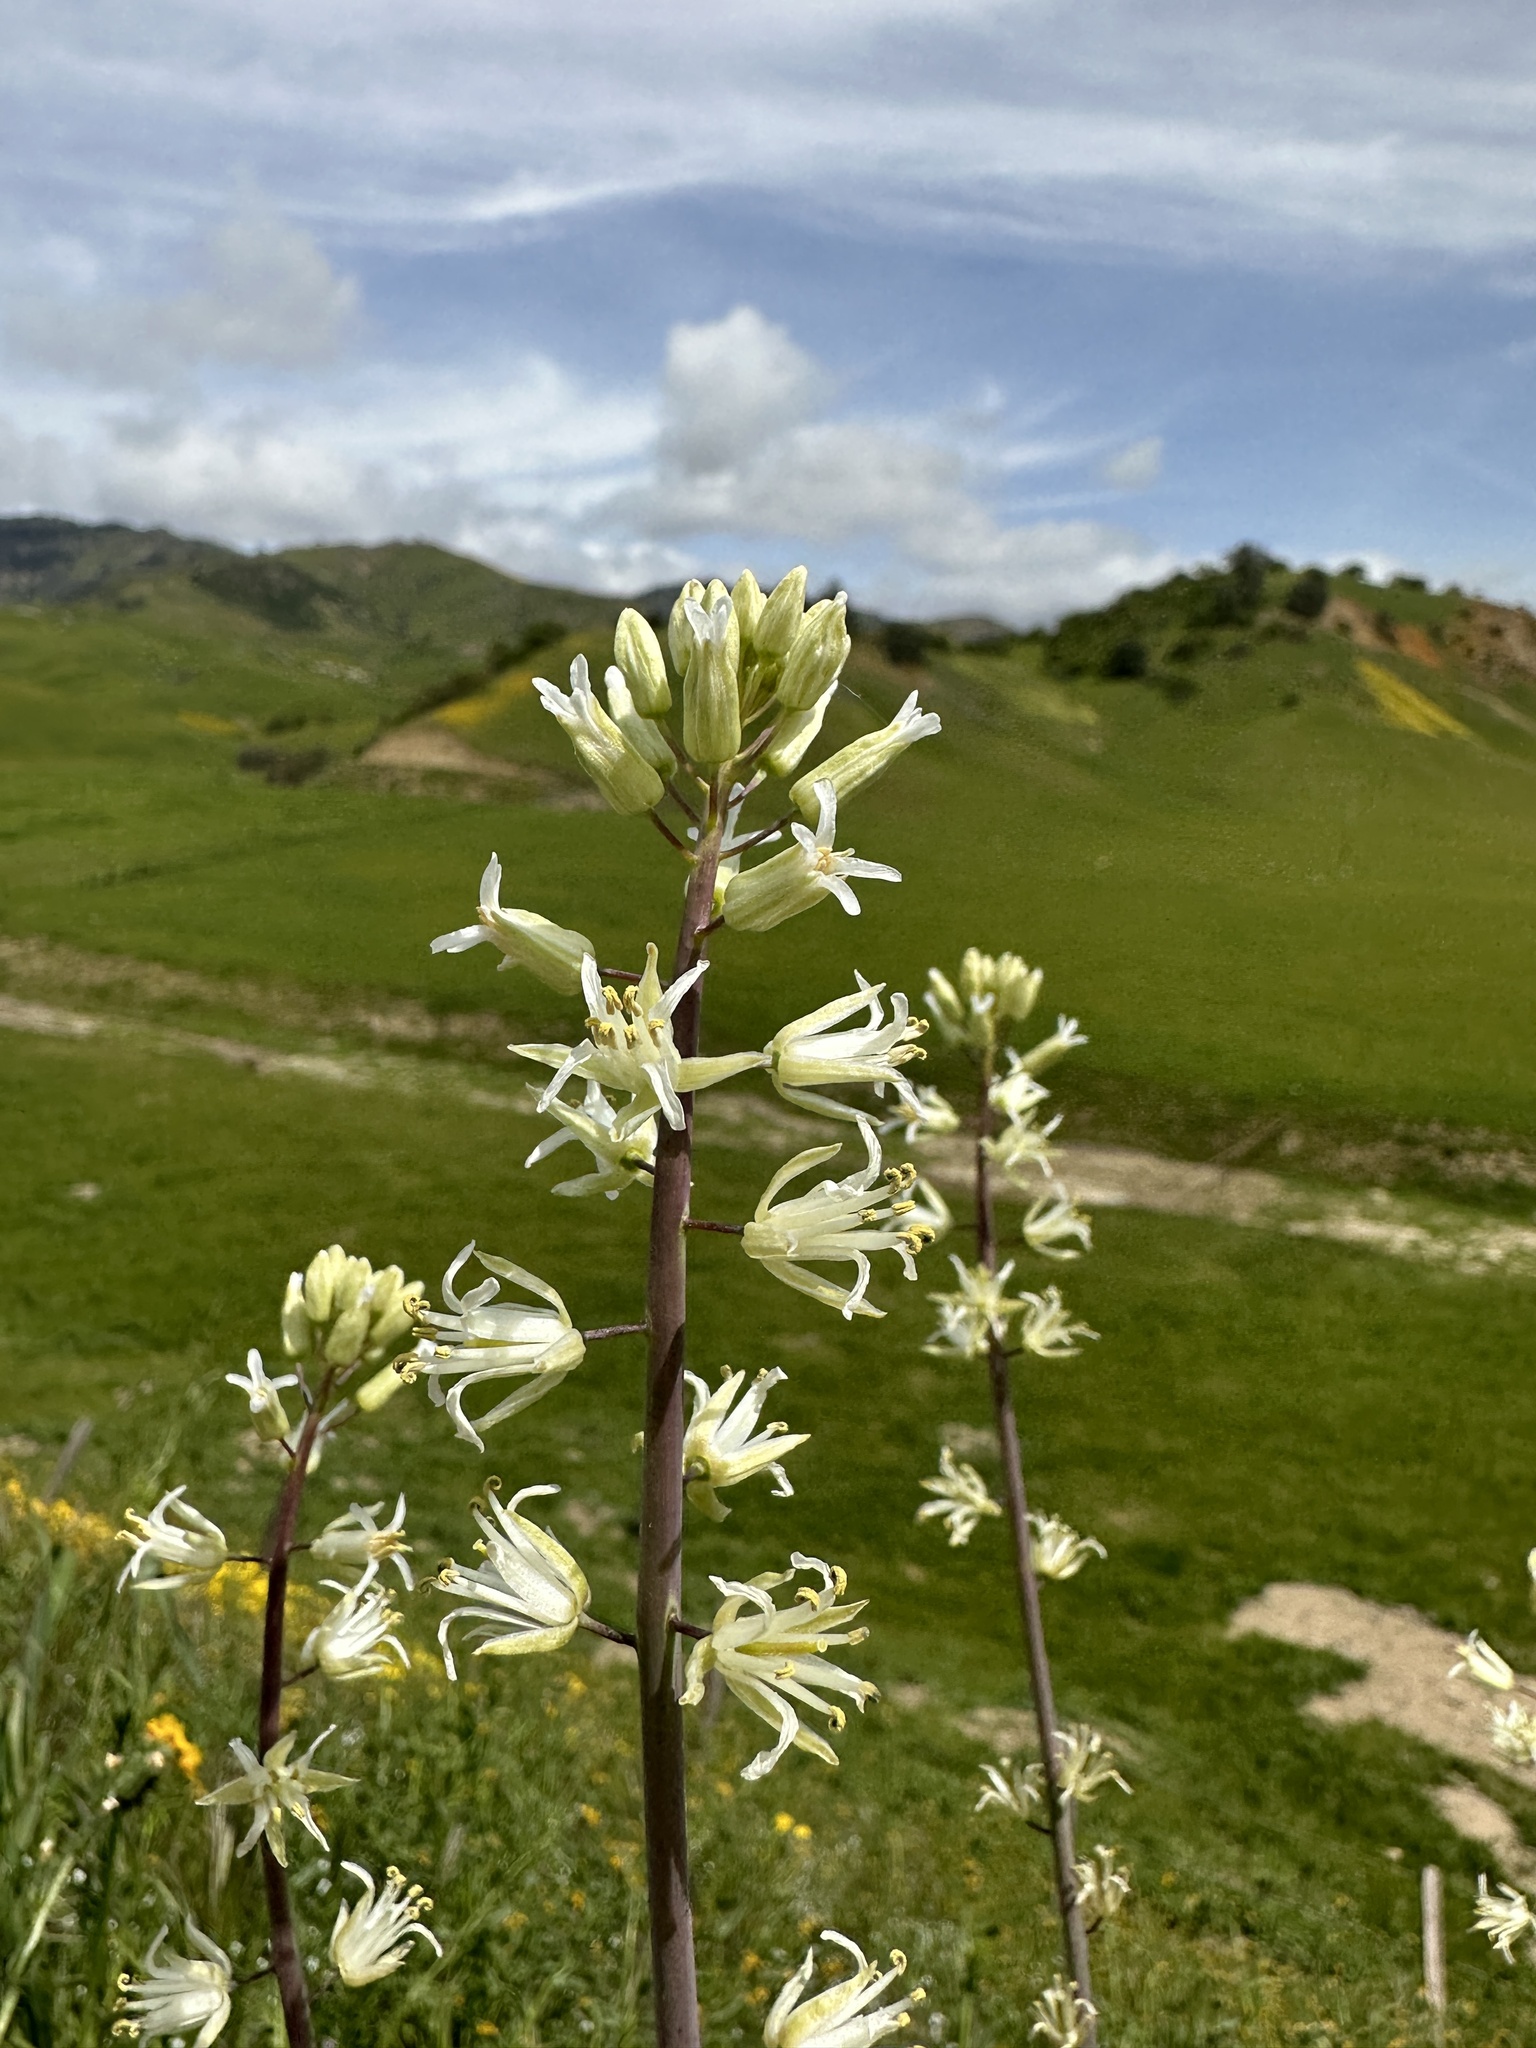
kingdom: Plantae
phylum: Tracheophyta
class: Magnoliopsida
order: Brassicales
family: Brassicaceae
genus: Streptanthus
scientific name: Streptanthus flavescens
